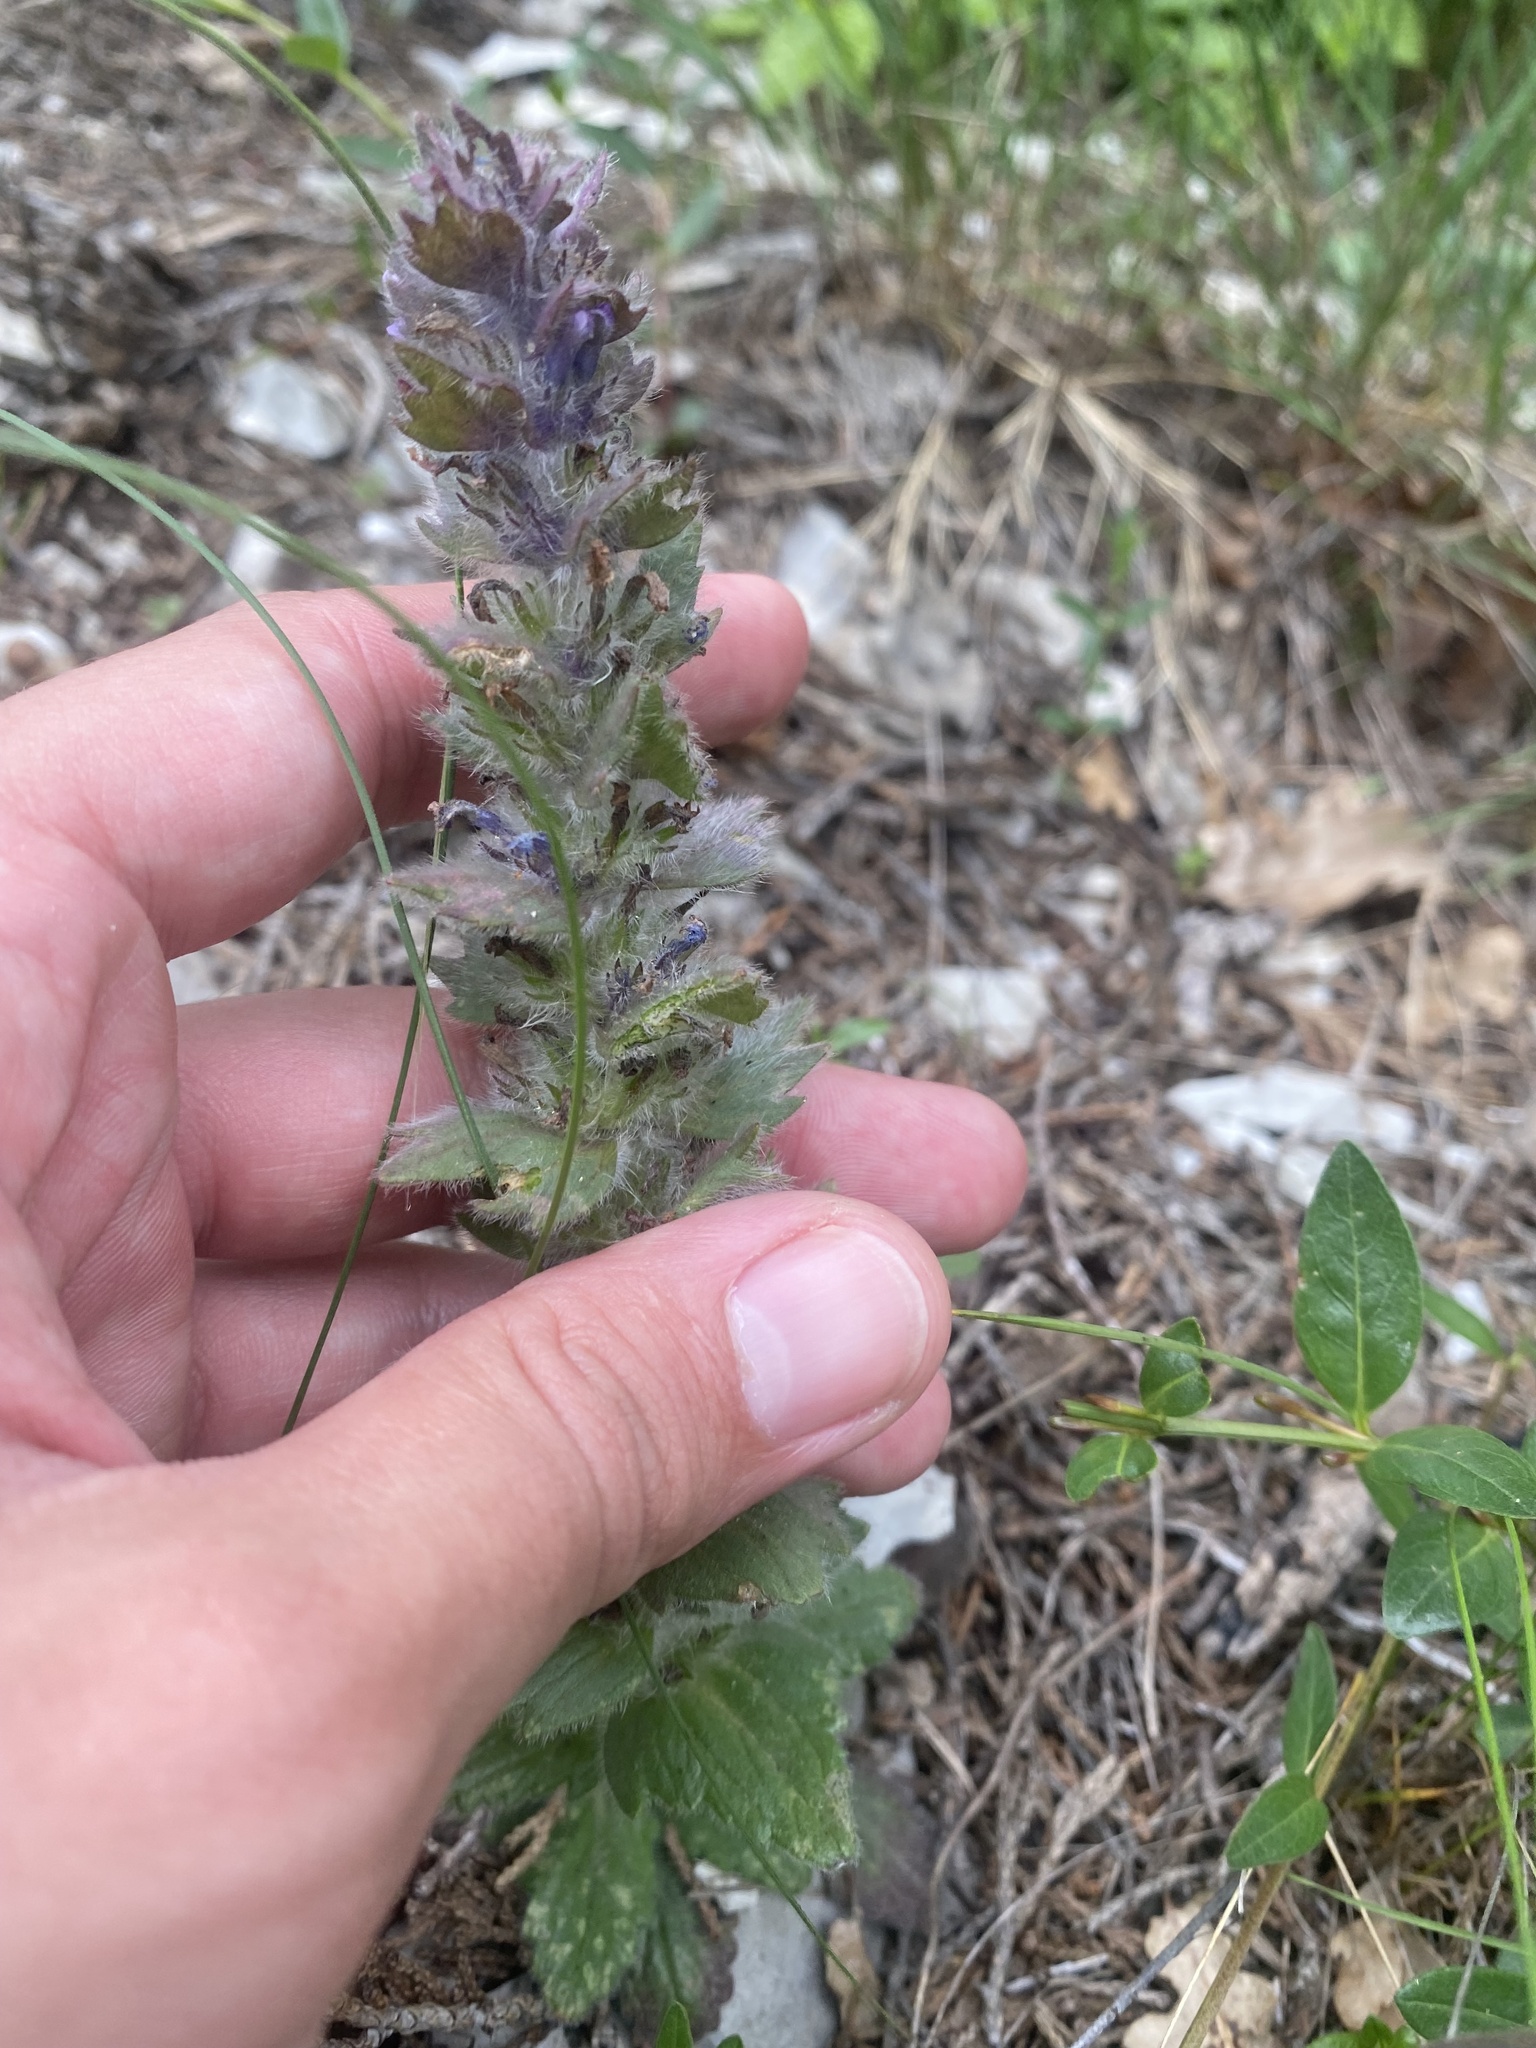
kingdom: Plantae
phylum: Tracheophyta
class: Magnoliopsida
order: Lamiales
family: Lamiaceae
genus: Ajuga
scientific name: Ajuga orientalis
